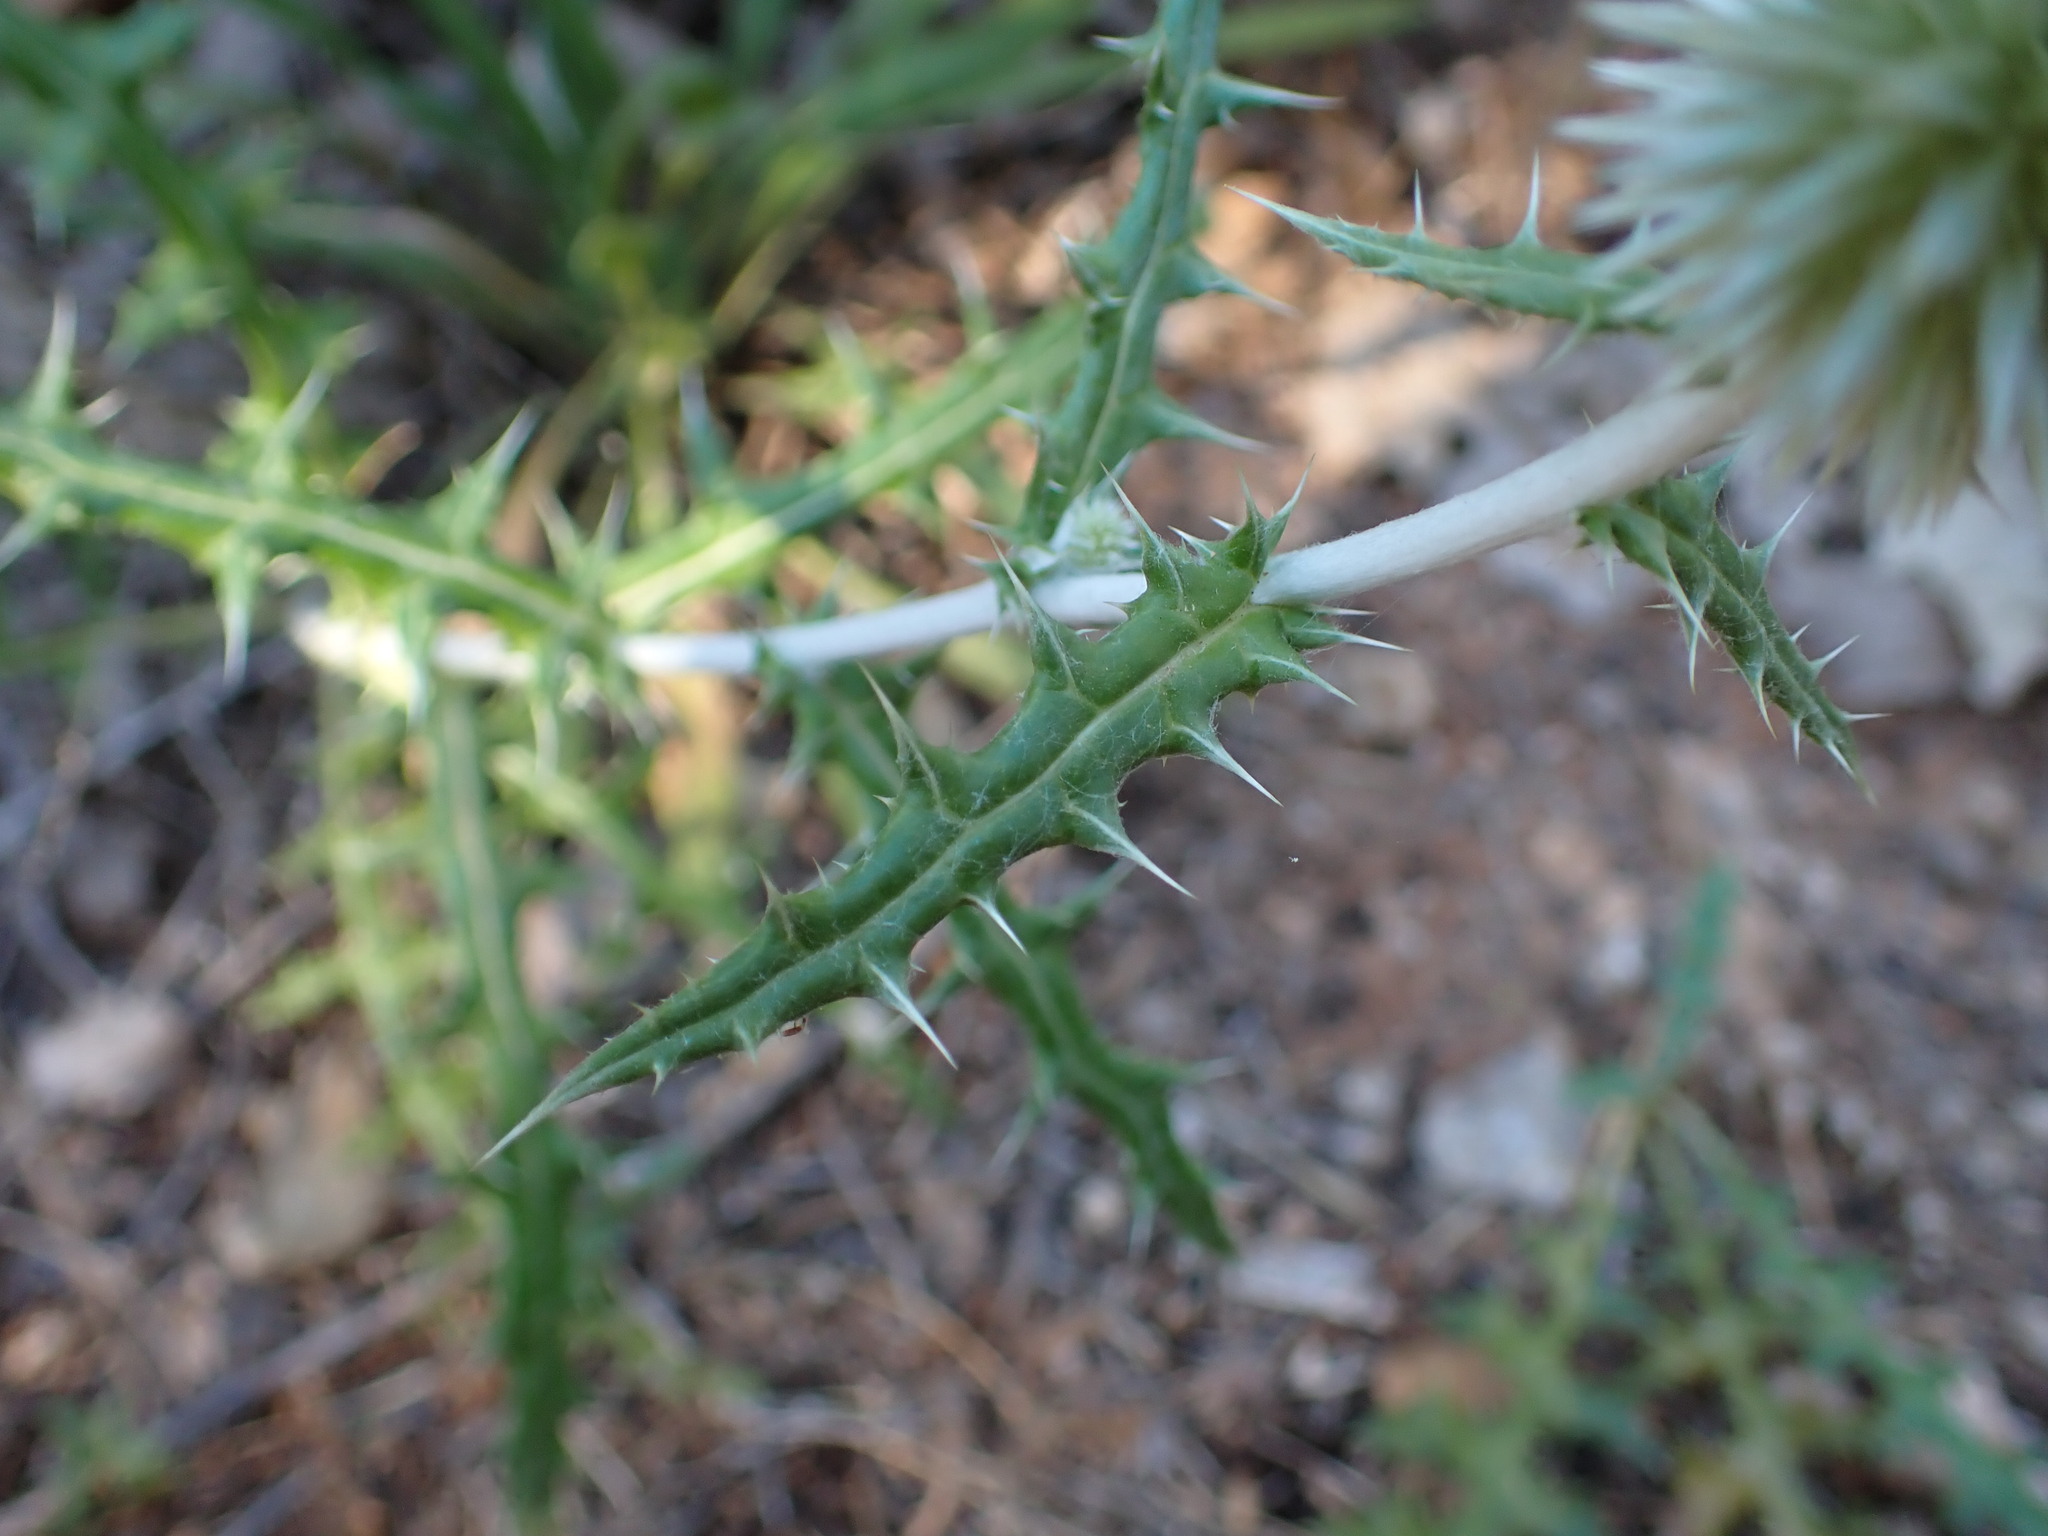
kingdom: Plantae
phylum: Tracheophyta
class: Magnoliopsida
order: Asterales
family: Asteraceae
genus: Echinops
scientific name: Echinops ritro
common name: Globe thistle
